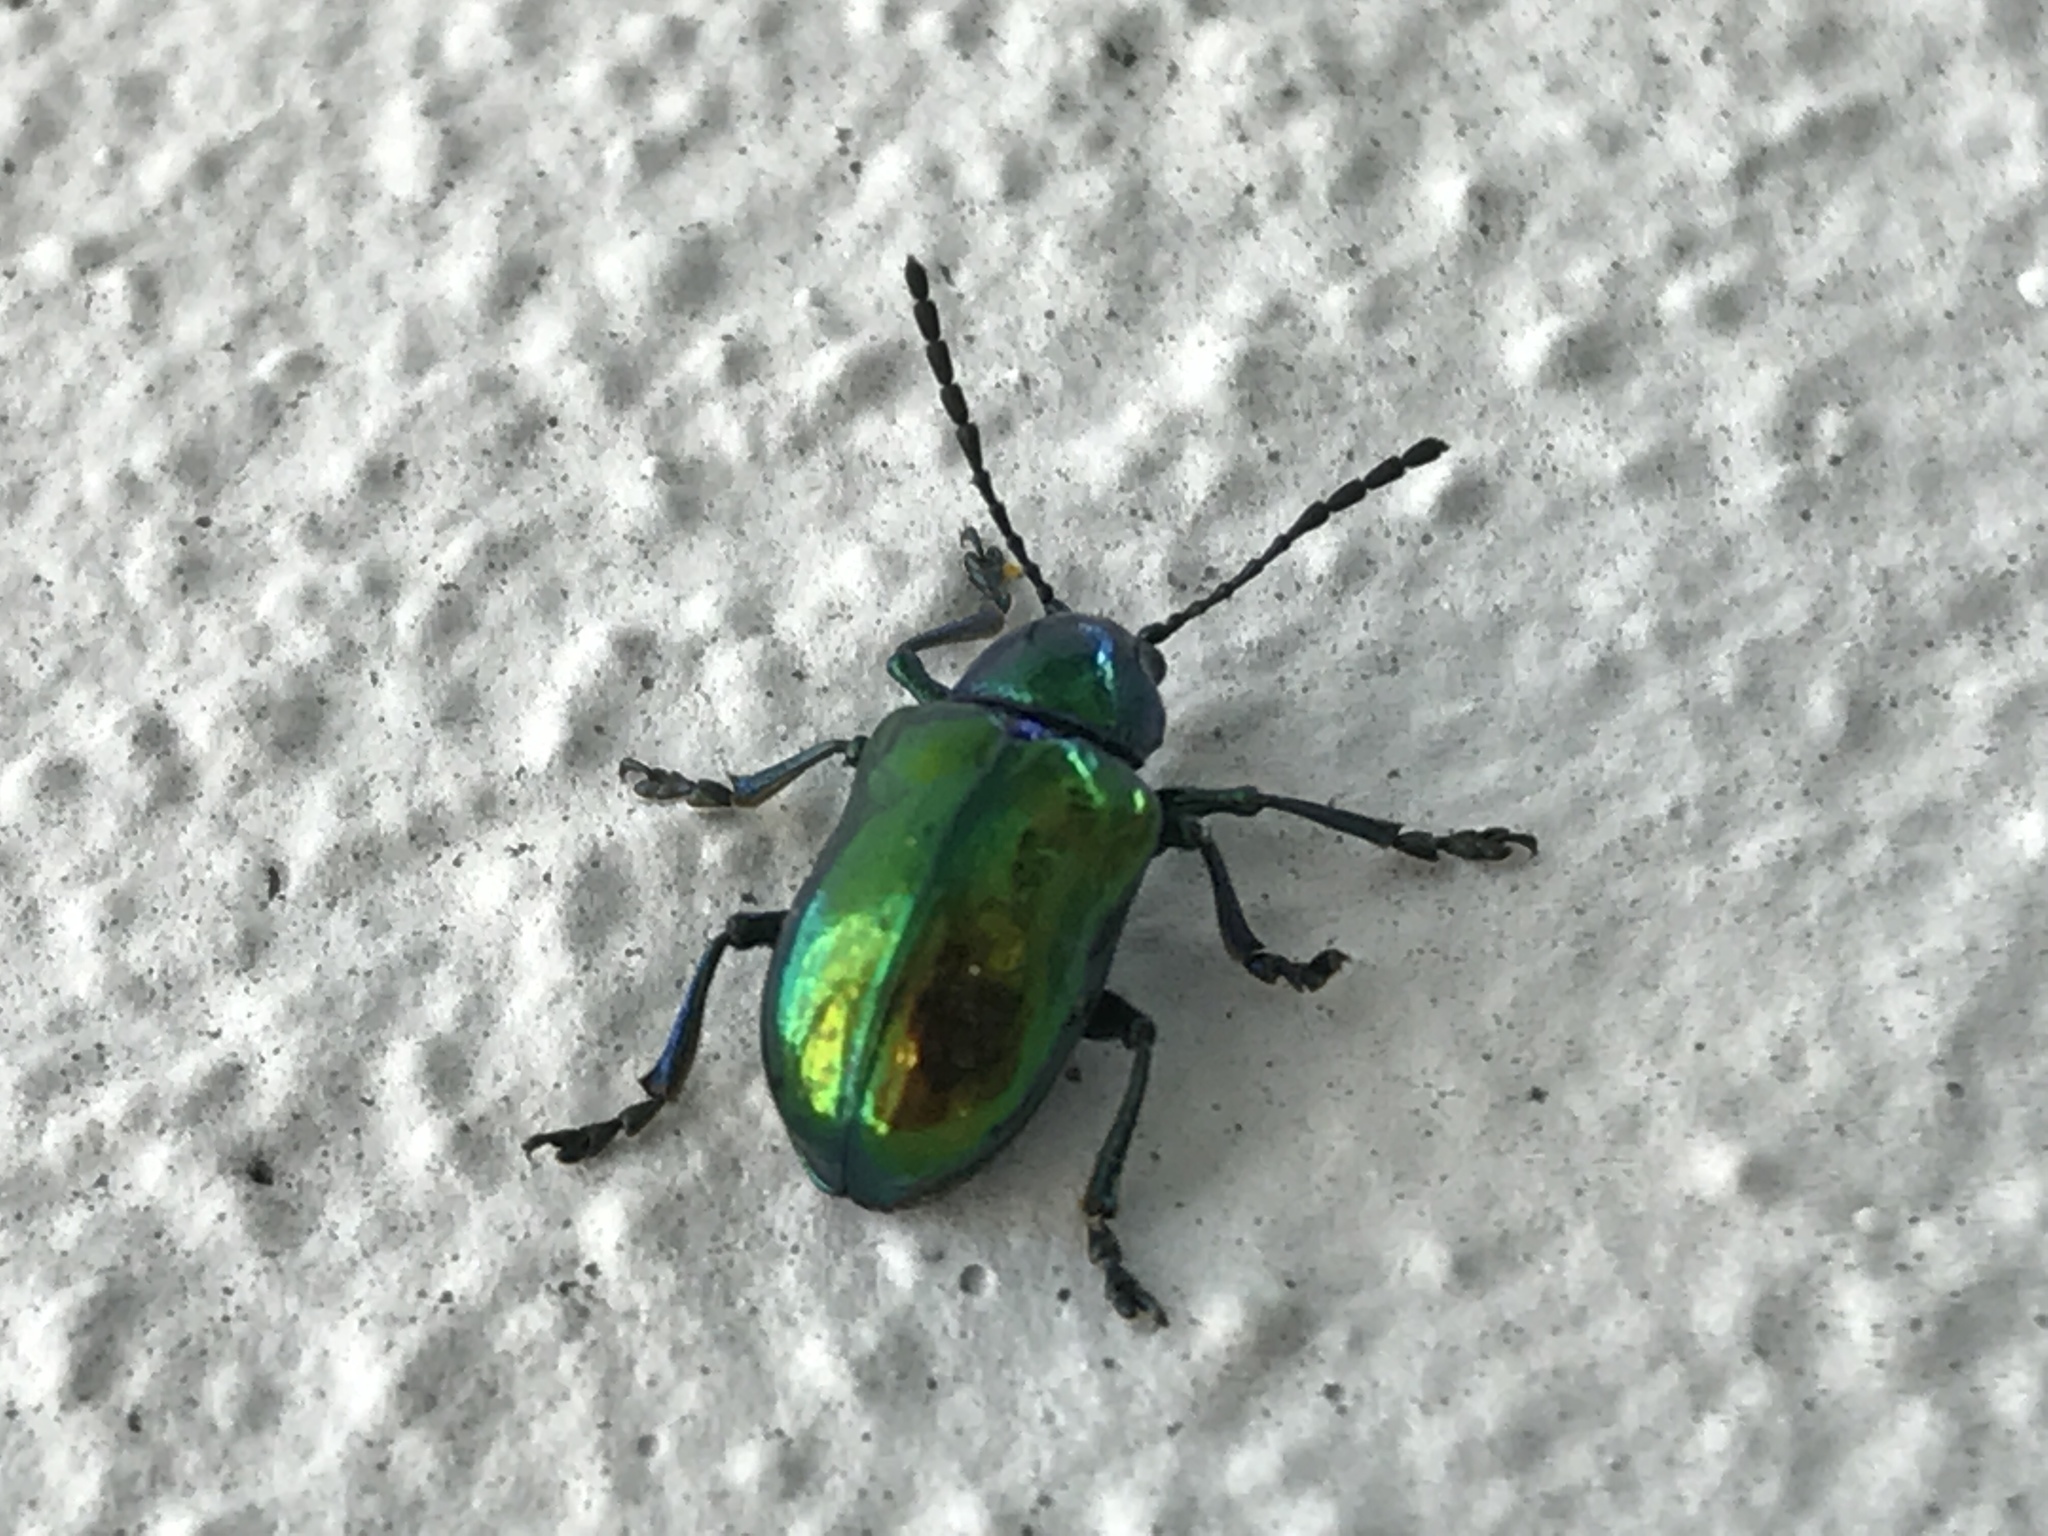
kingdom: Animalia
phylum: Arthropoda
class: Insecta
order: Coleoptera
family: Chrysomelidae
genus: Chrysochus
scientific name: Chrysochus auratus
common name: Dogbane leaf beetle
